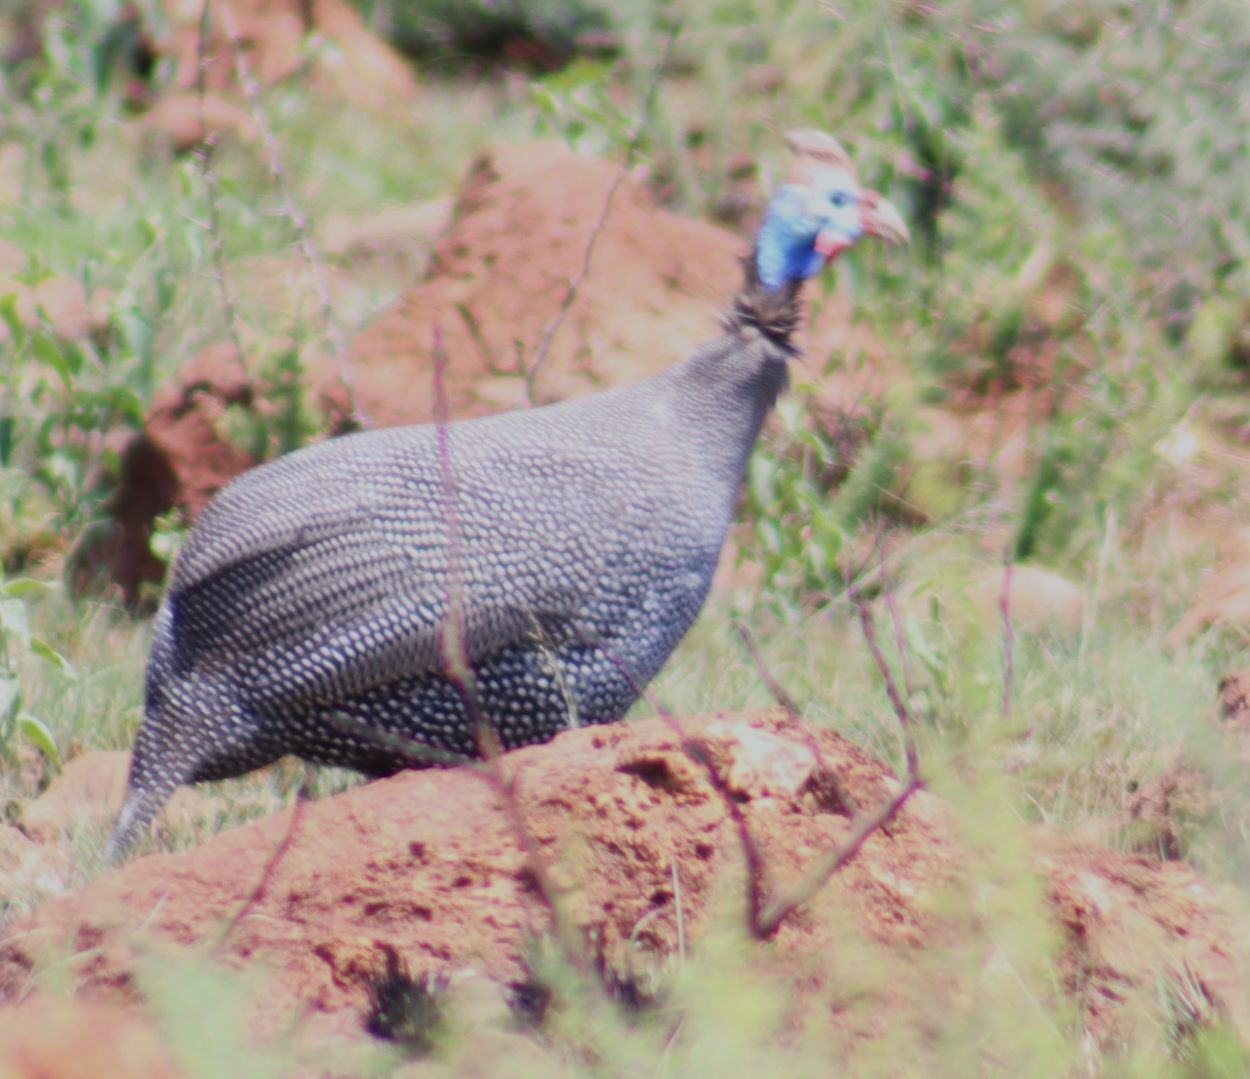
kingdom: Animalia
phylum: Chordata
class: Aves
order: Galliformes
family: Numididae
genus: Numida
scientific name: Numida meleagris
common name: Helmeted guineafowl
